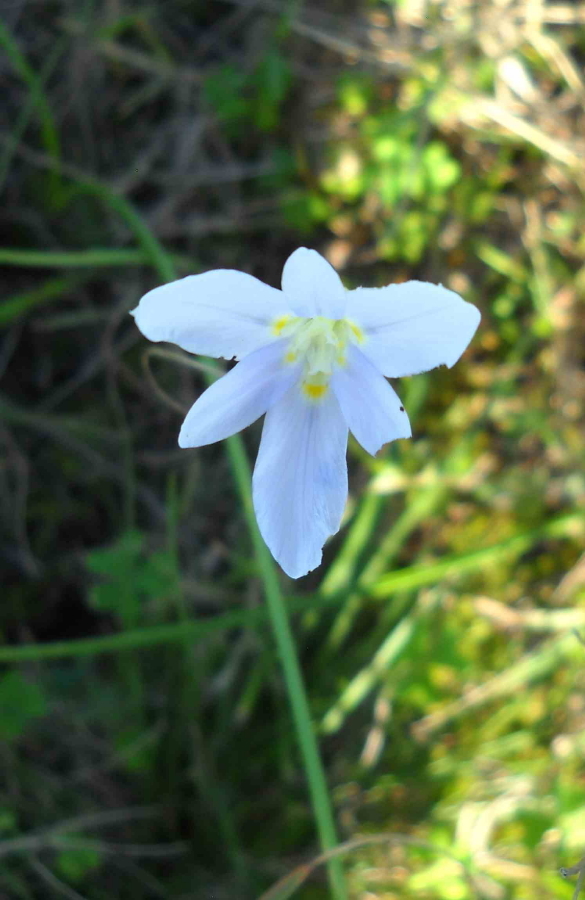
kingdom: Plantae
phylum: Tracheophyta
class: Liliopsida
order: Asparagales
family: Iridaceae
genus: Moraea
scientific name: Moraea polyanthos
